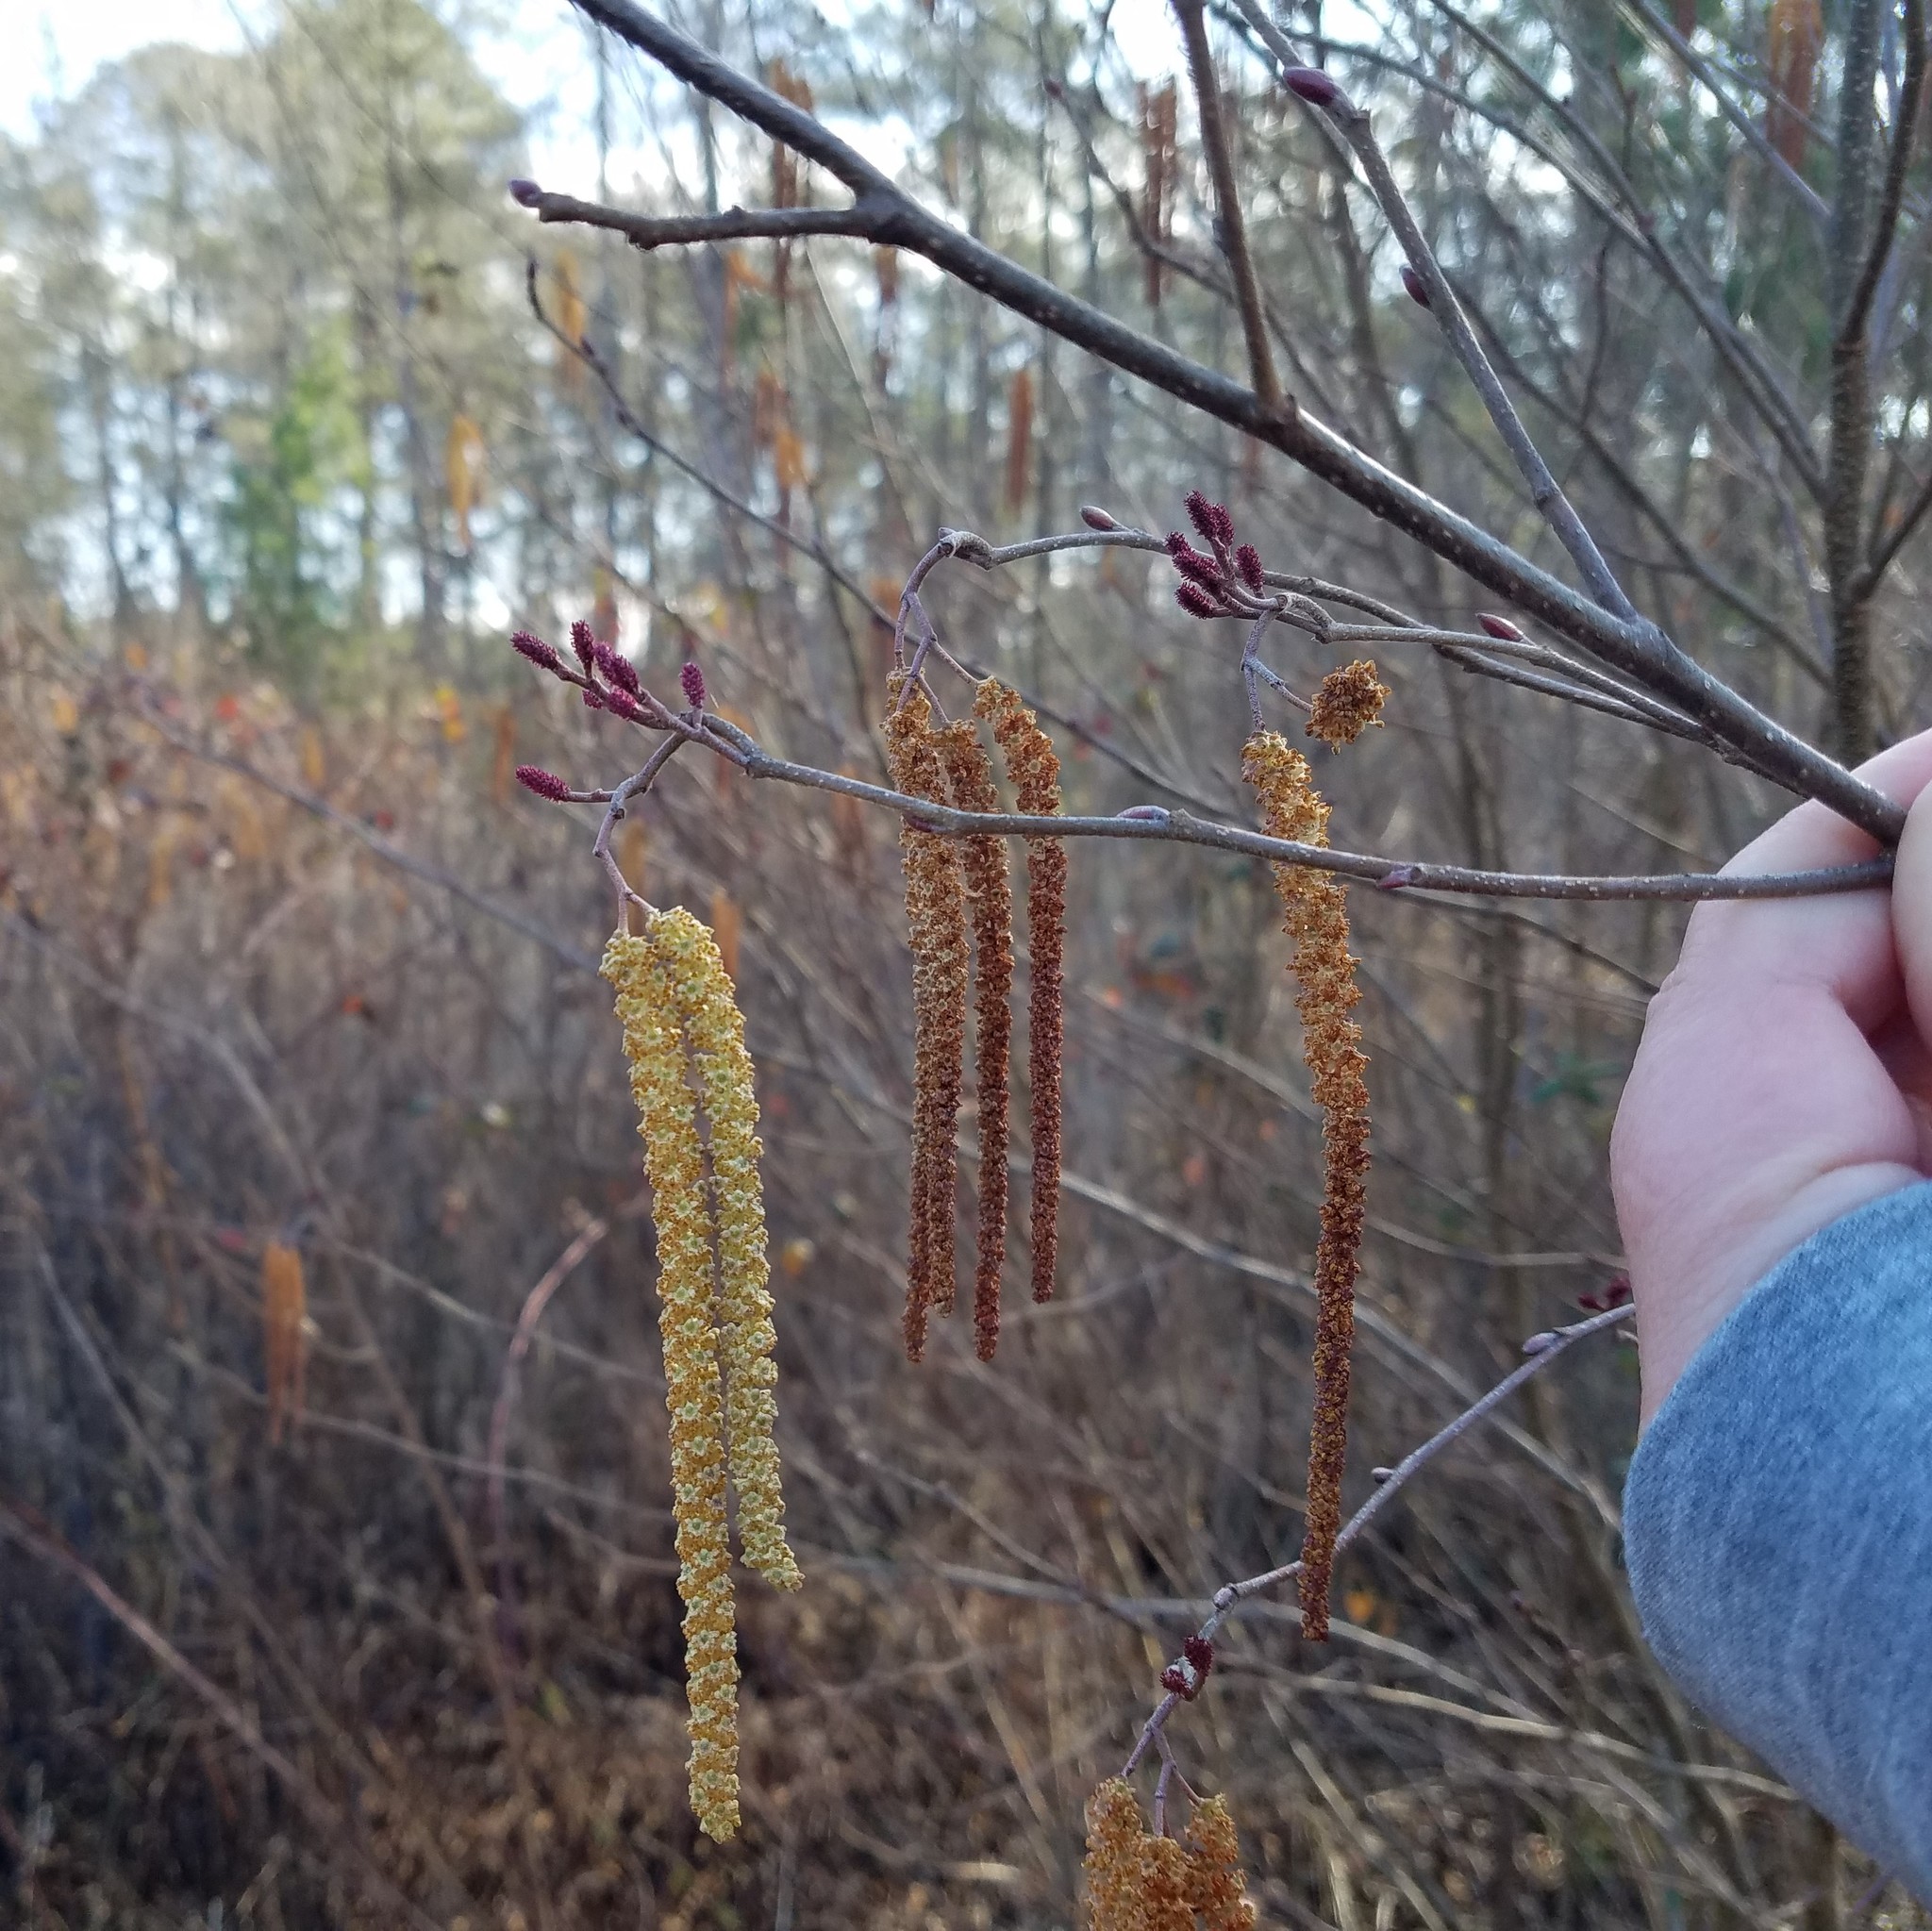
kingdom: Plantae
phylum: Tracheophyta
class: Magnoliopsida
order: Fagales
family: Betulaceae
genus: Alnus
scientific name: Alnus serrulata
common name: Hazel alder
